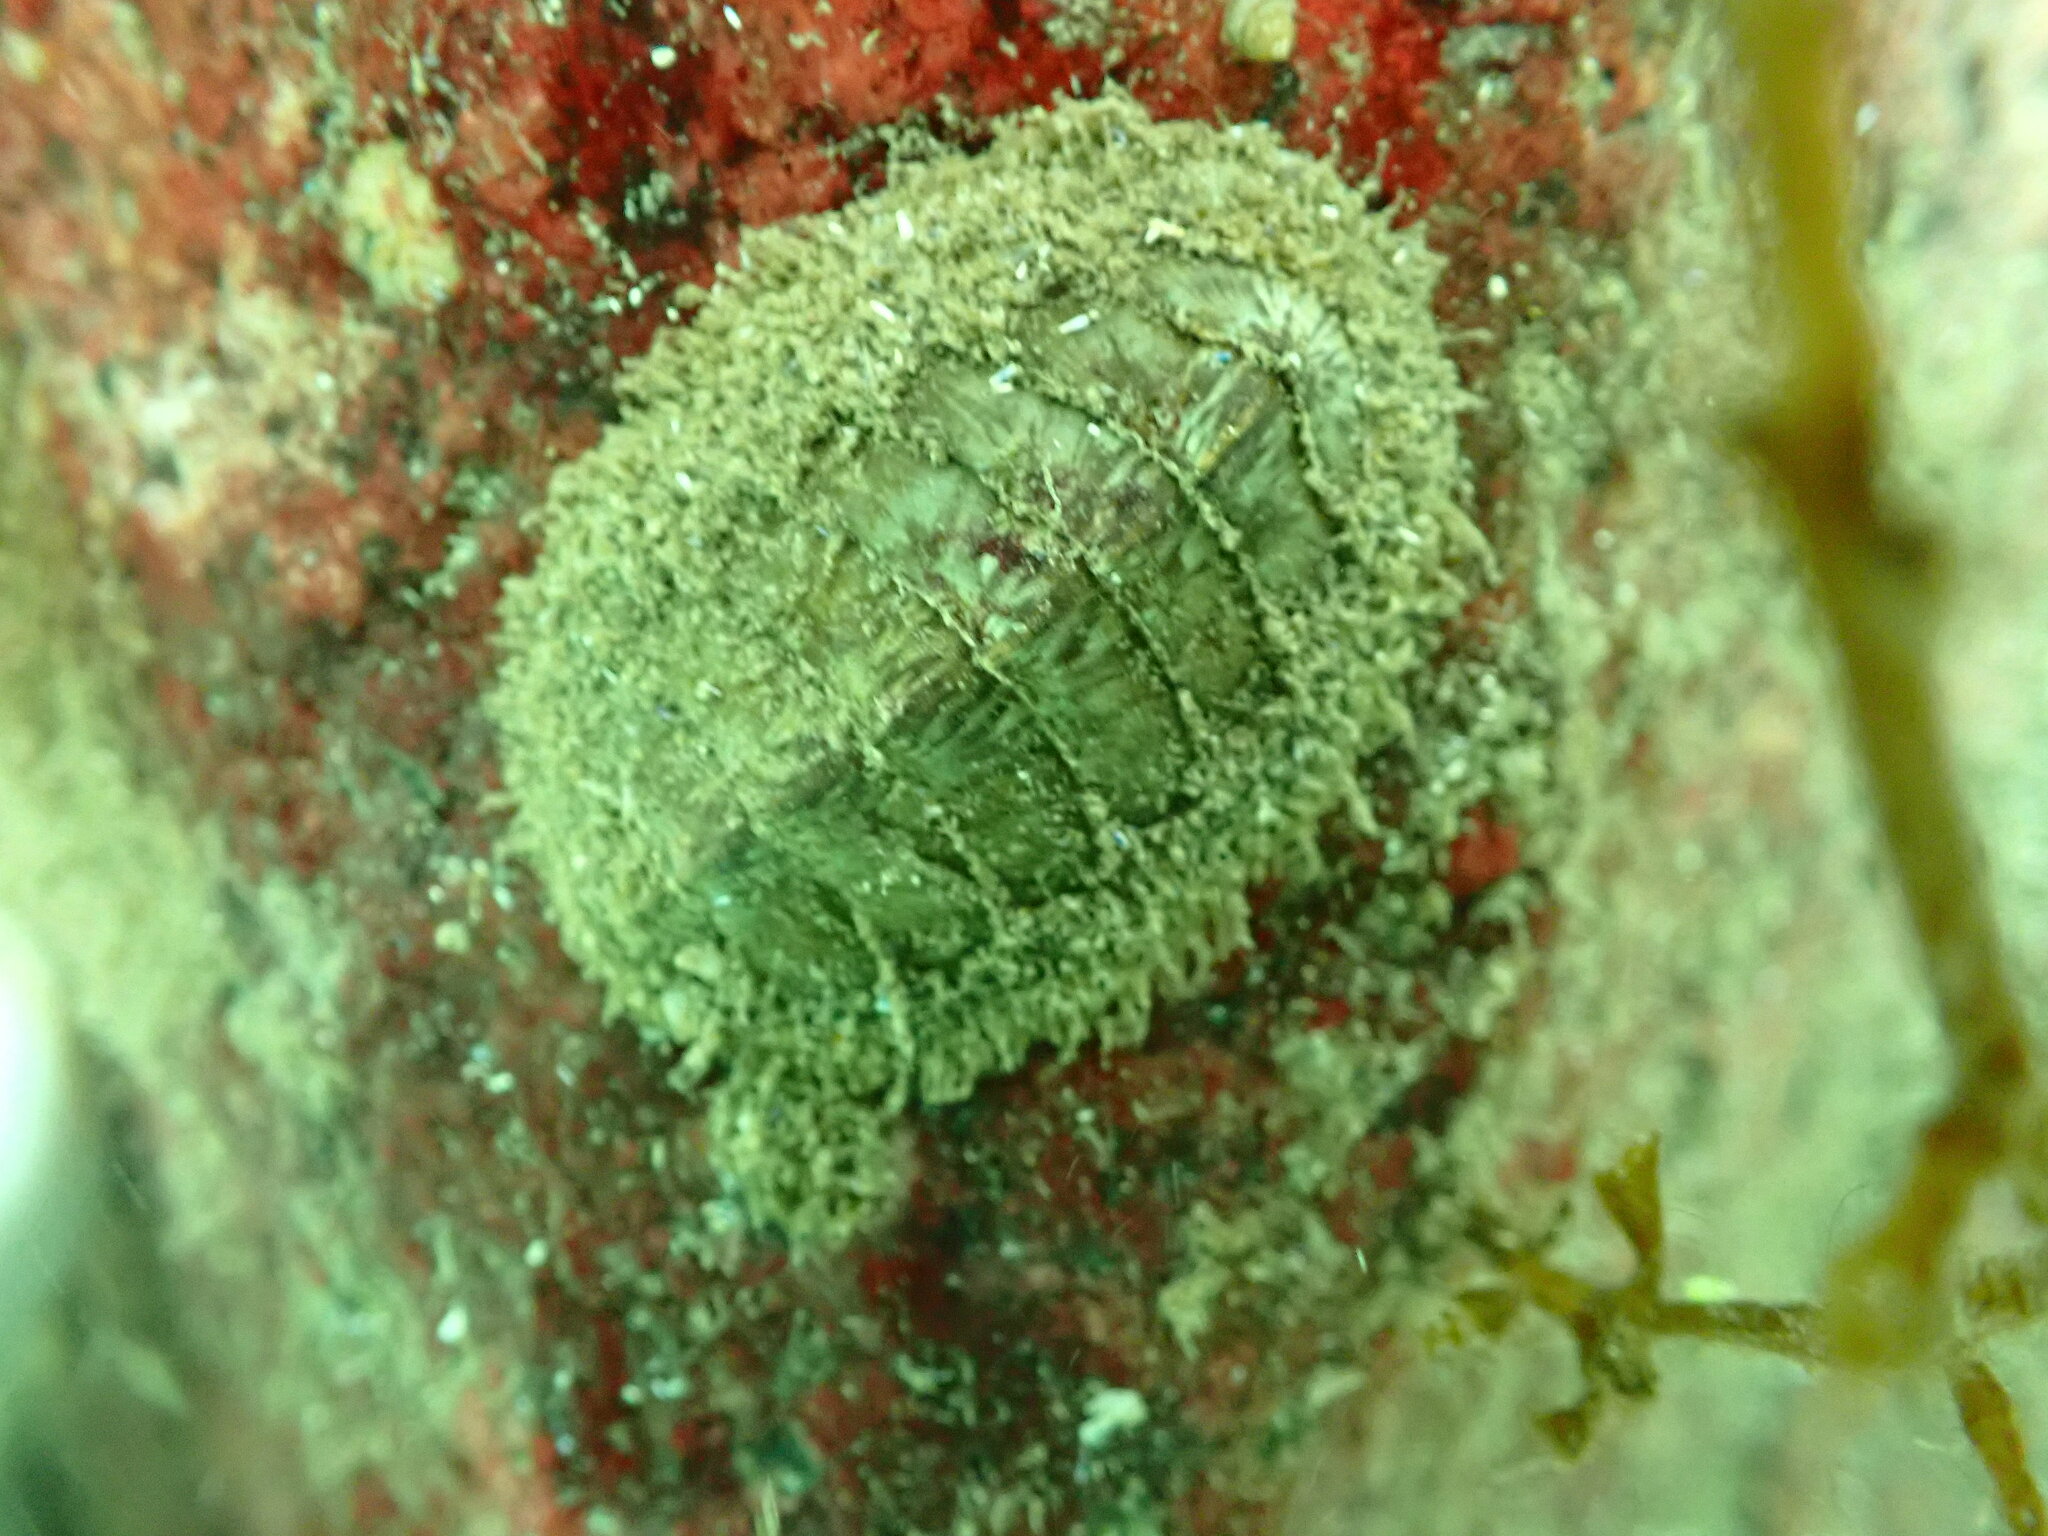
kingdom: Animalia
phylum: Mollusca
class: Polyplacophora
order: Chitonida
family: Mopaliidae
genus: Mopalia
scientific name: Mopalia lignosa
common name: Woody chiton
